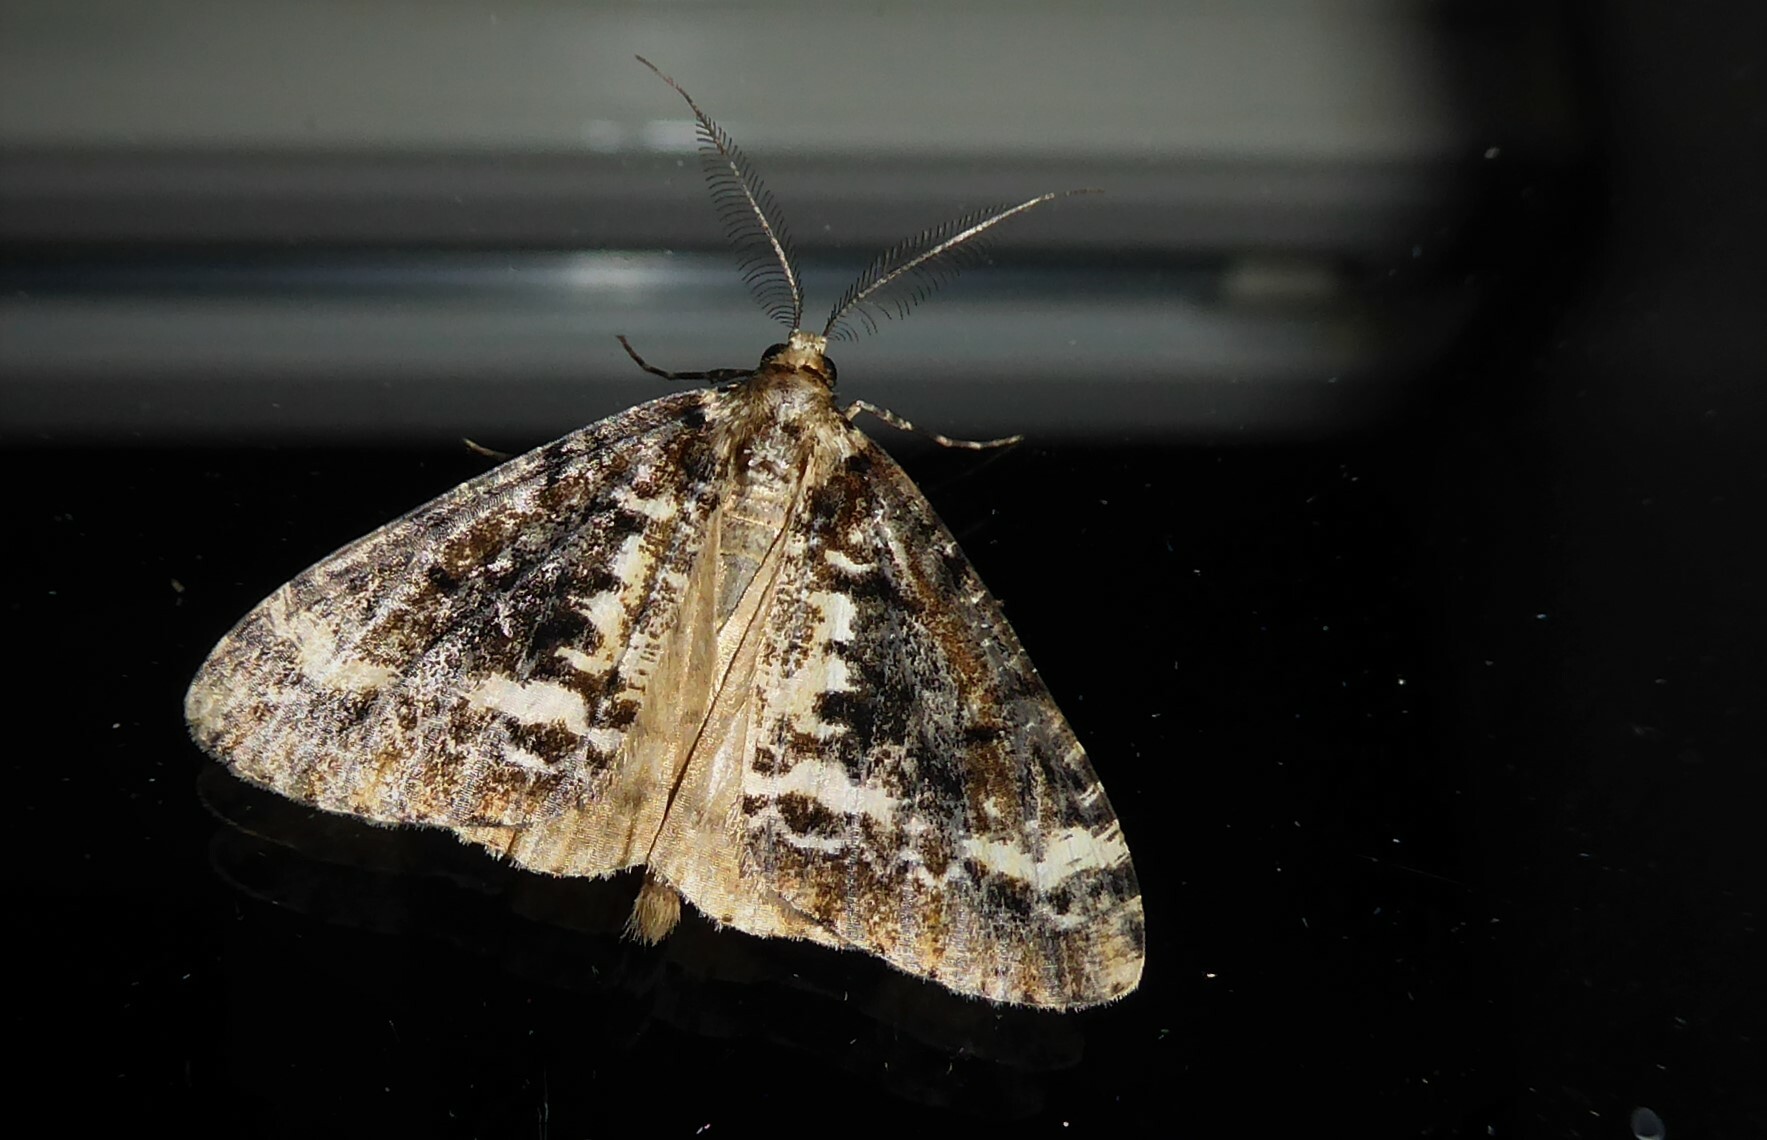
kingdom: Animalia
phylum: Arthropoda
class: Insecta
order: Lepidoptera
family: Geometridae
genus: Pseudocoremia
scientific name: Pseudocoremia leucelaea
